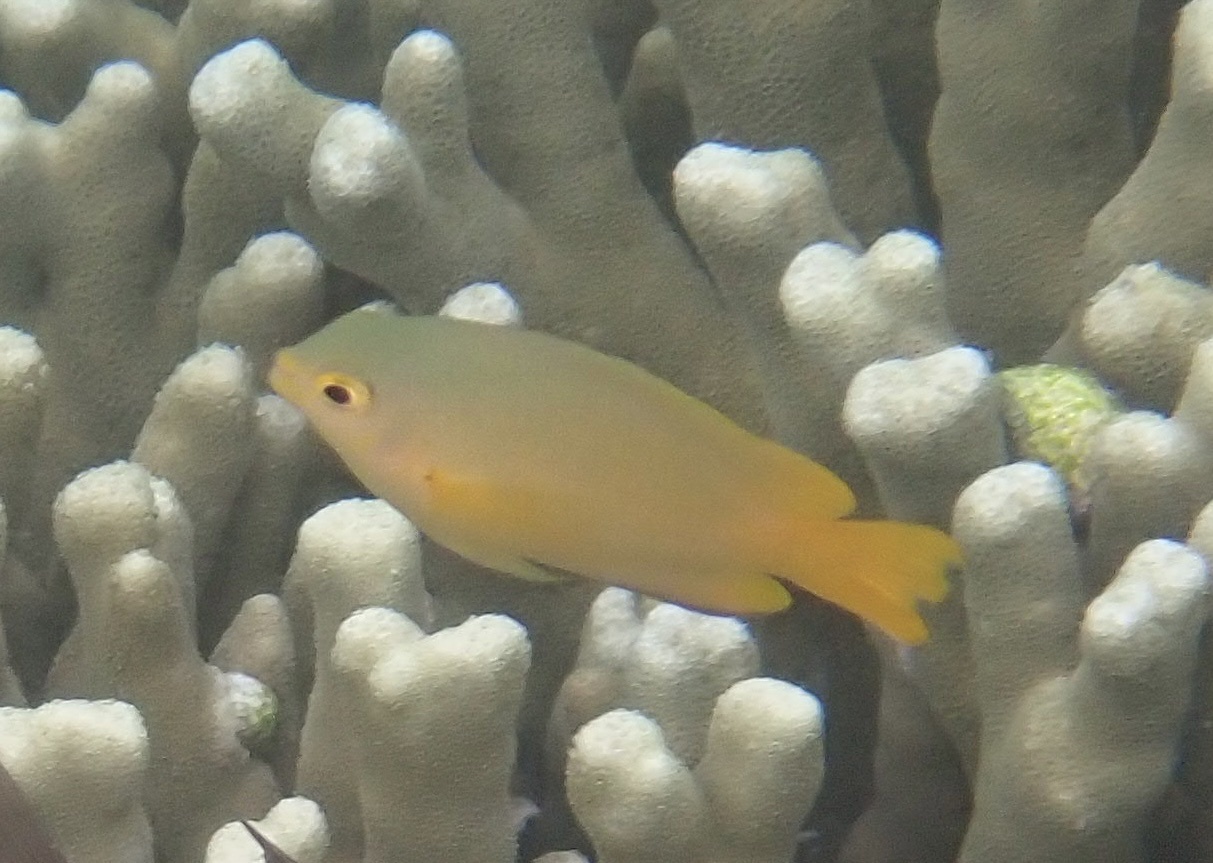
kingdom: Animalia
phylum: Chordata
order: Perciformes
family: Pomacentridae
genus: Pomacentrus
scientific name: Pomacentrus moluccensis
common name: Lemon damsel
